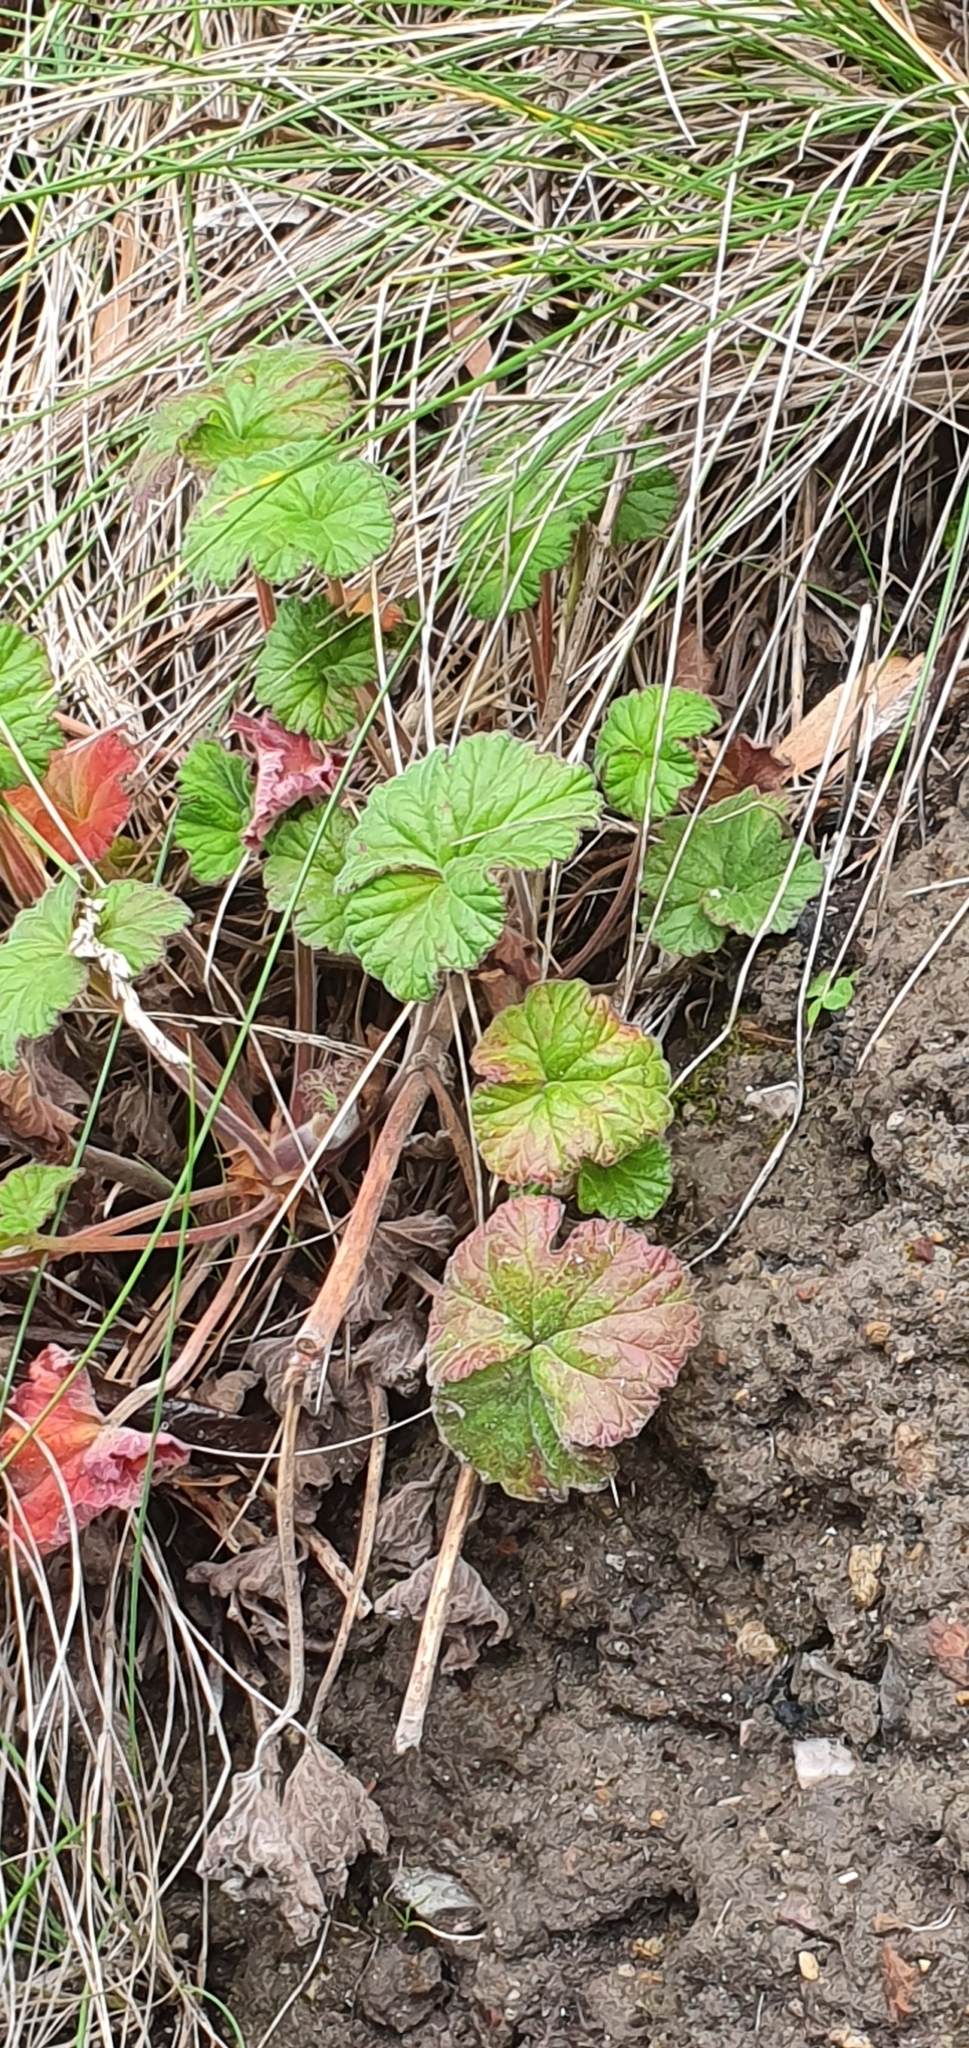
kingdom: Plantae
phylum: Tracheophyta
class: Magnoliopsida
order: Geraniales
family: Geraniaceae
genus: Pelargonium
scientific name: Pelargonium australe
